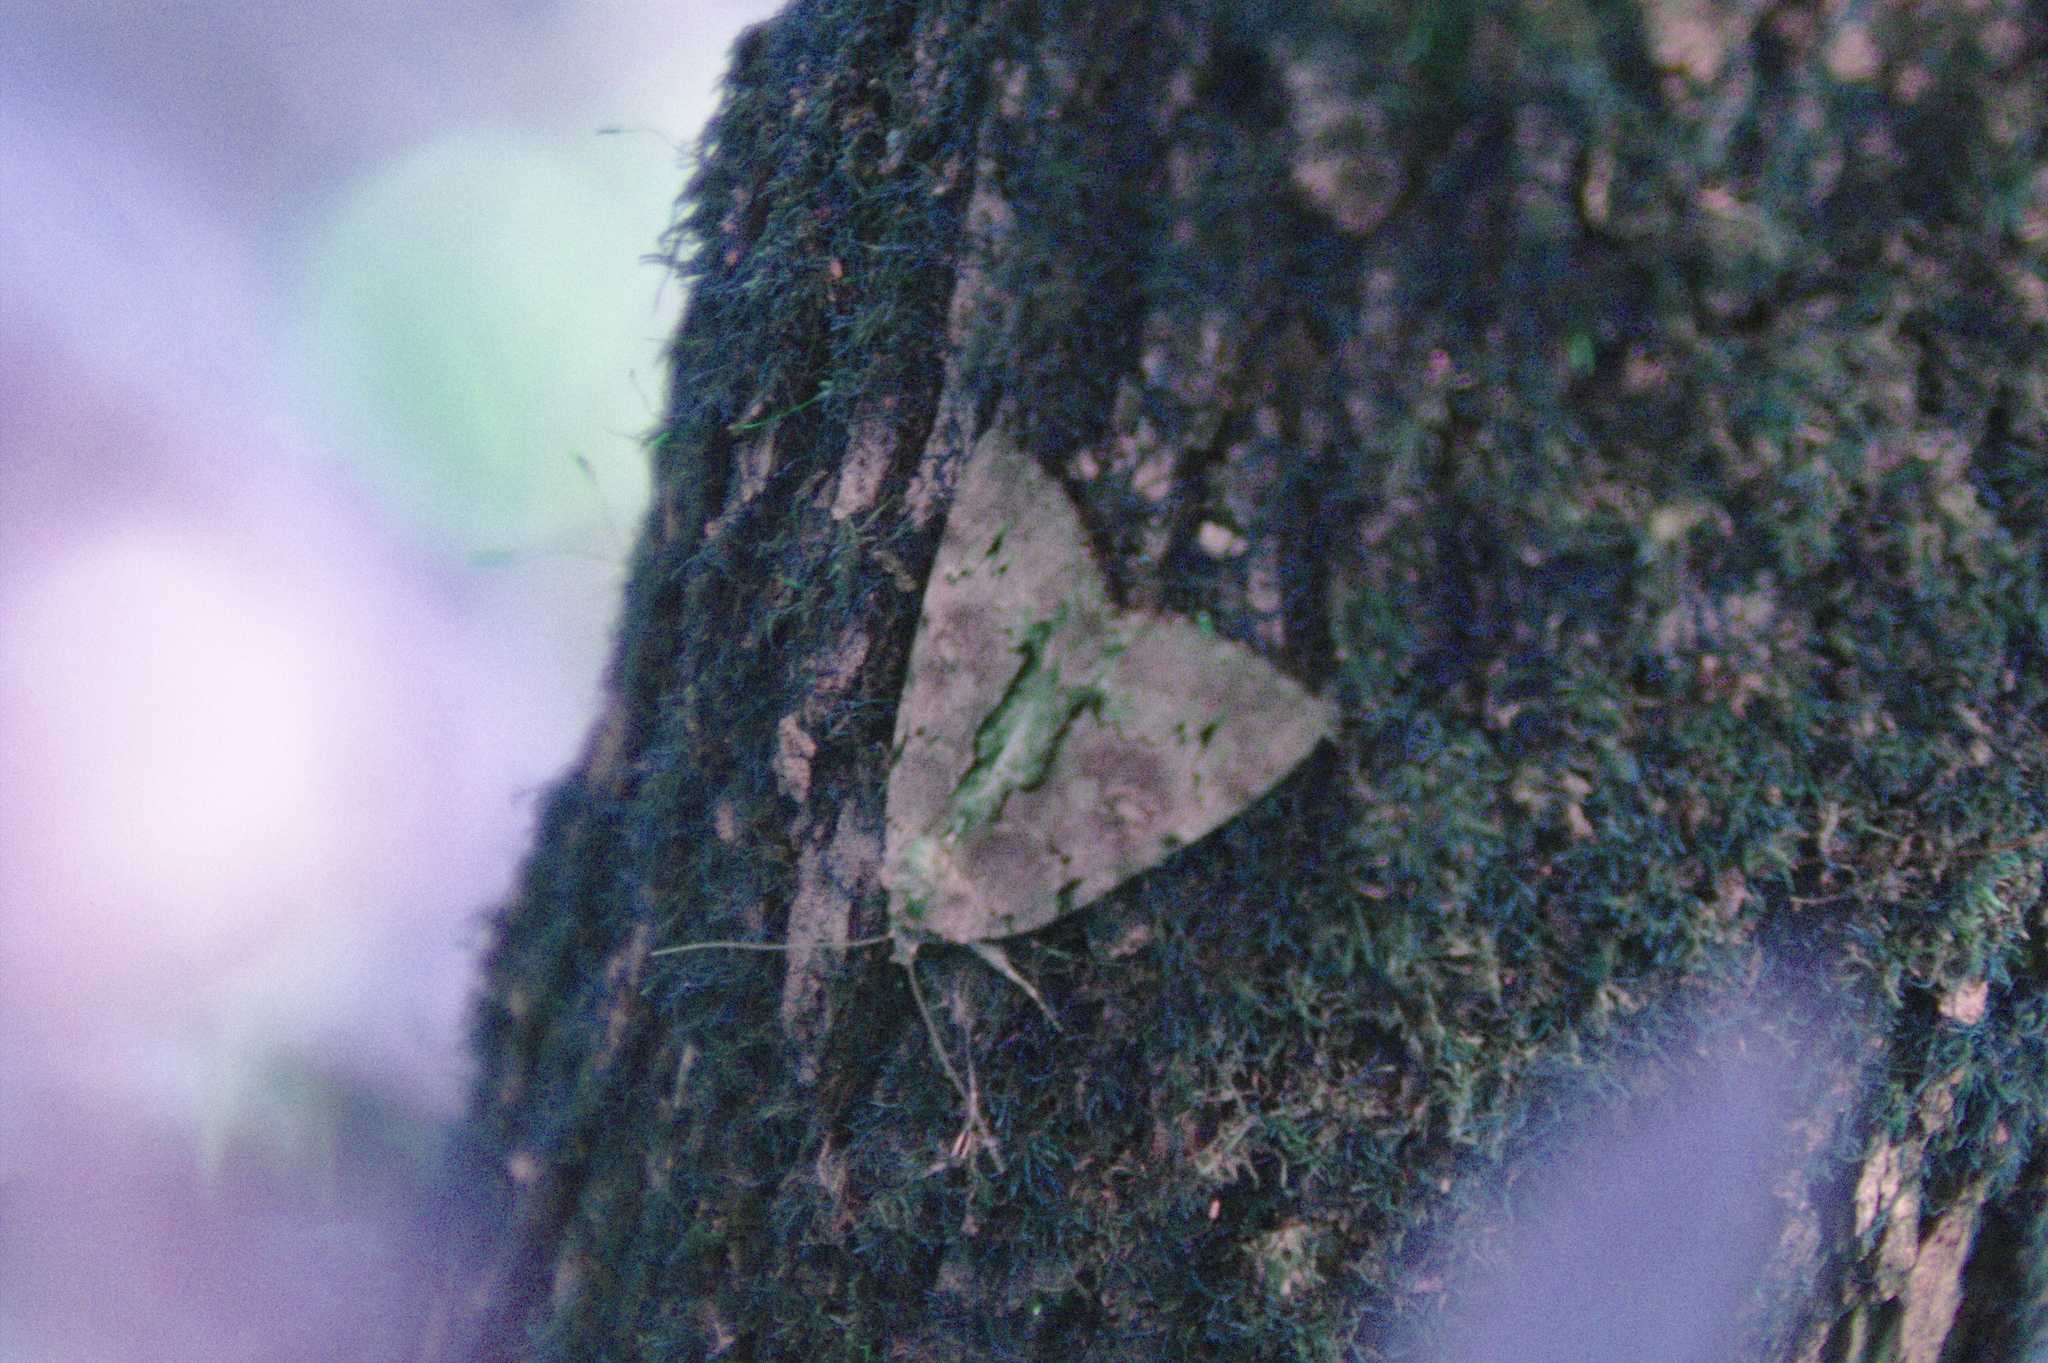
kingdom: Animalia
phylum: Arthropoda
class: Insecta
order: Lepidoptera
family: Erebidae
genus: Catocala
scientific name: Catocala grynea
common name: Woody underwing
